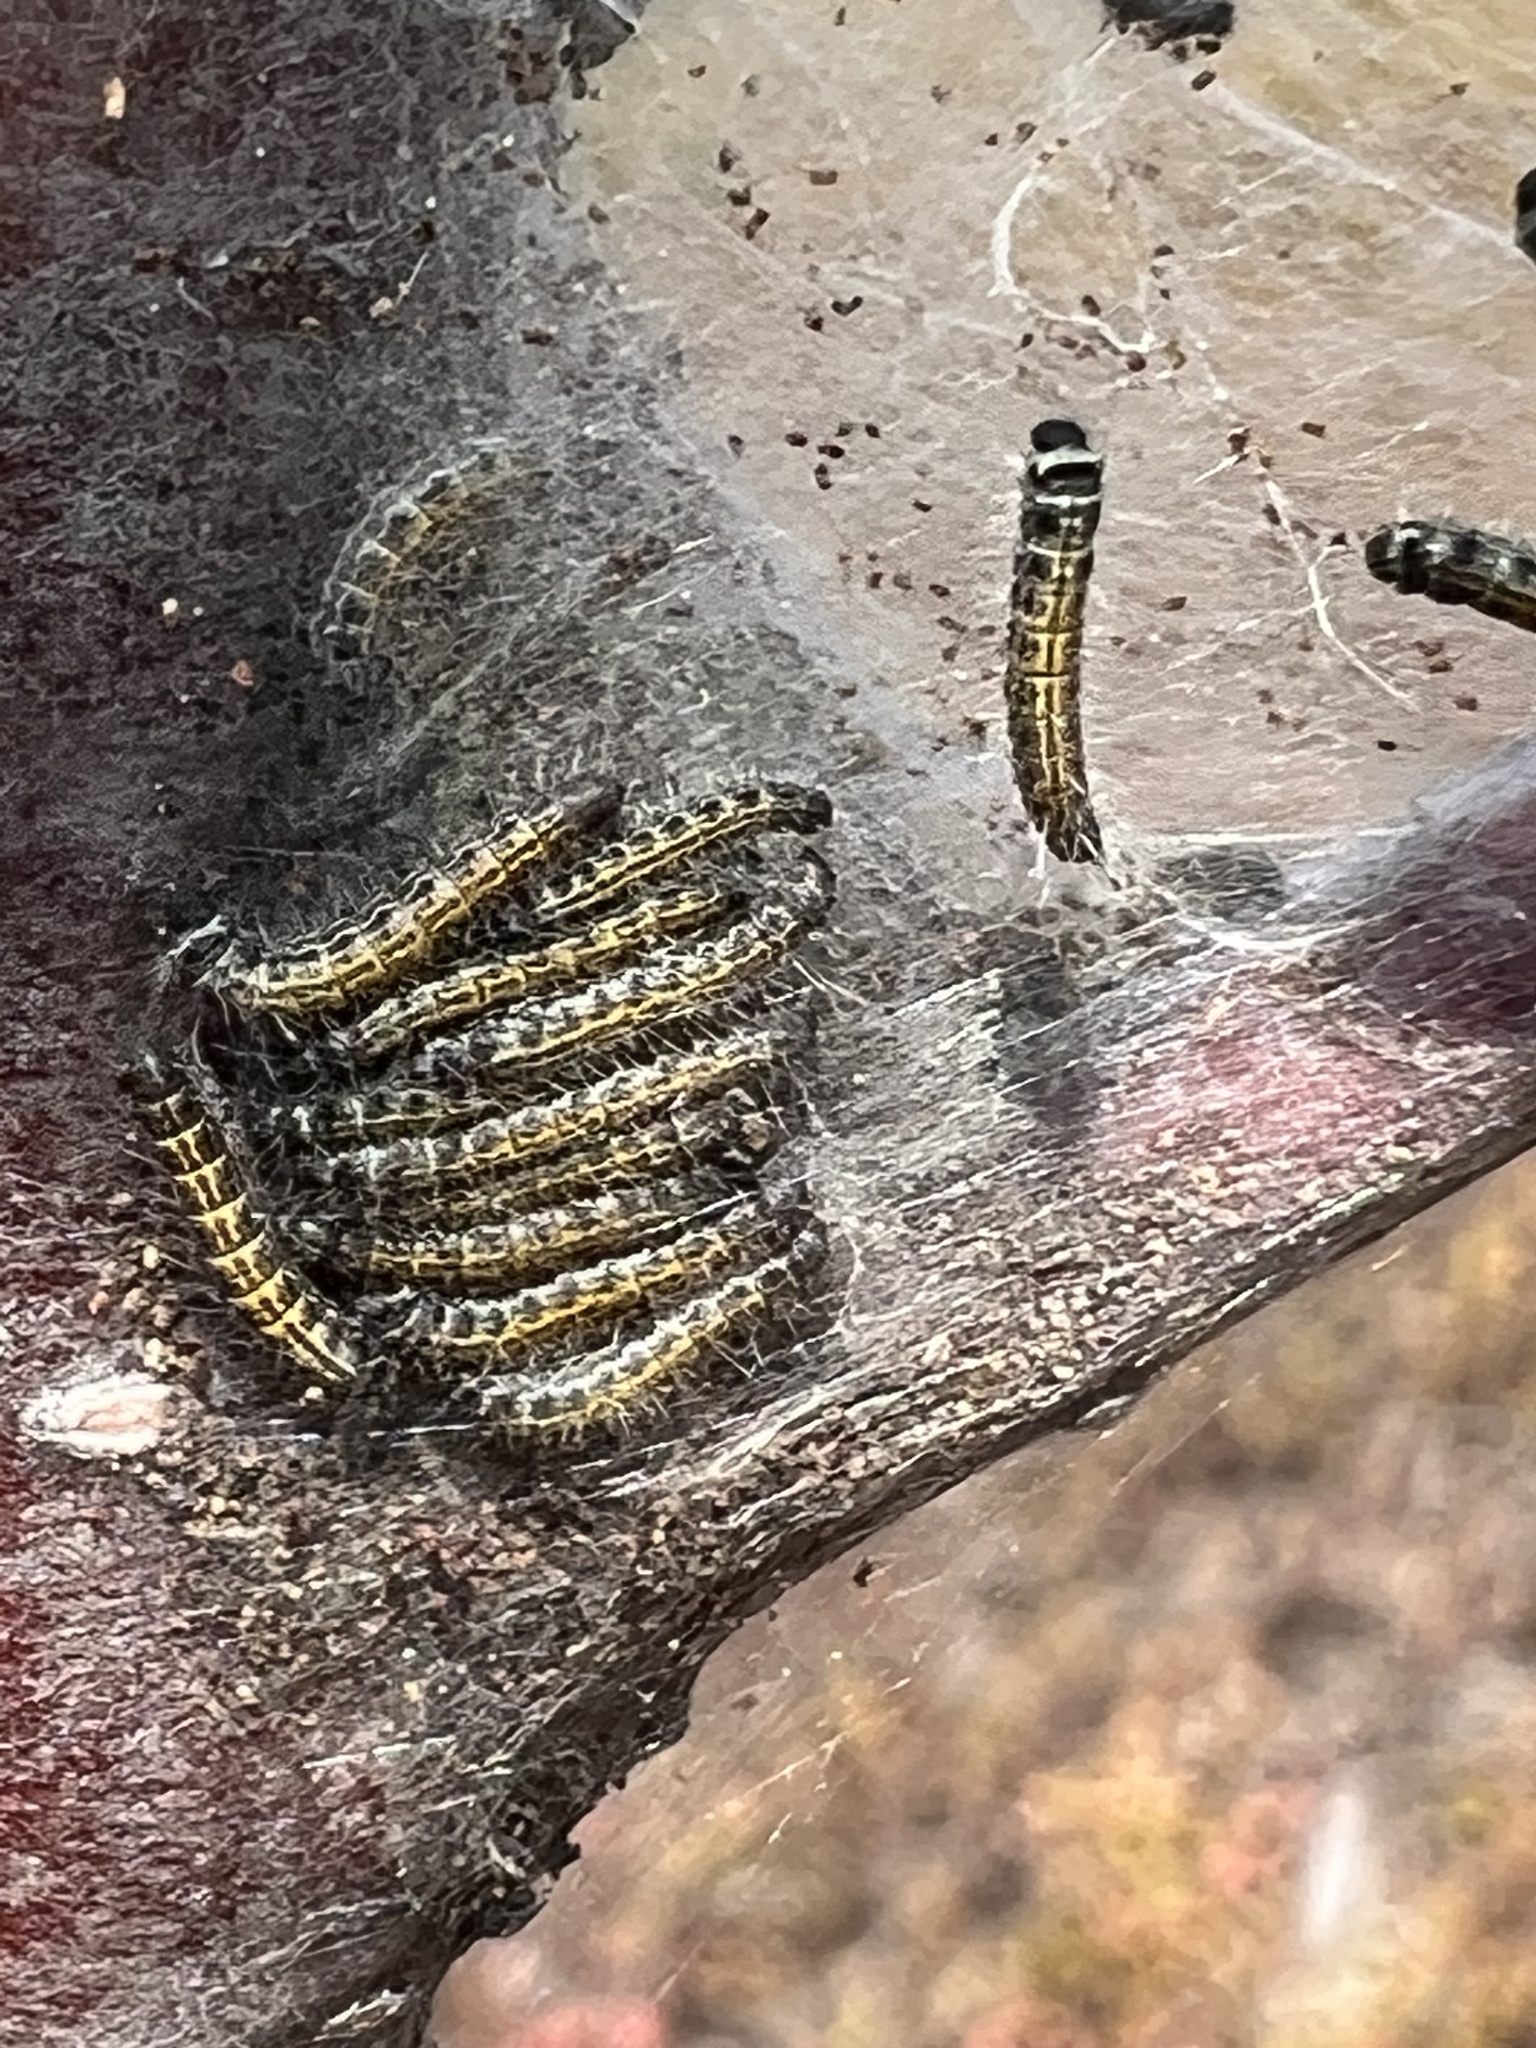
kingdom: Animalia
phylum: Arthropoda
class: Insecta
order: Lepidoptera
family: Lasiocampidae
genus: Malacosoma
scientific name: Malacosoma americana
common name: Eastern tent caterpillar moth
